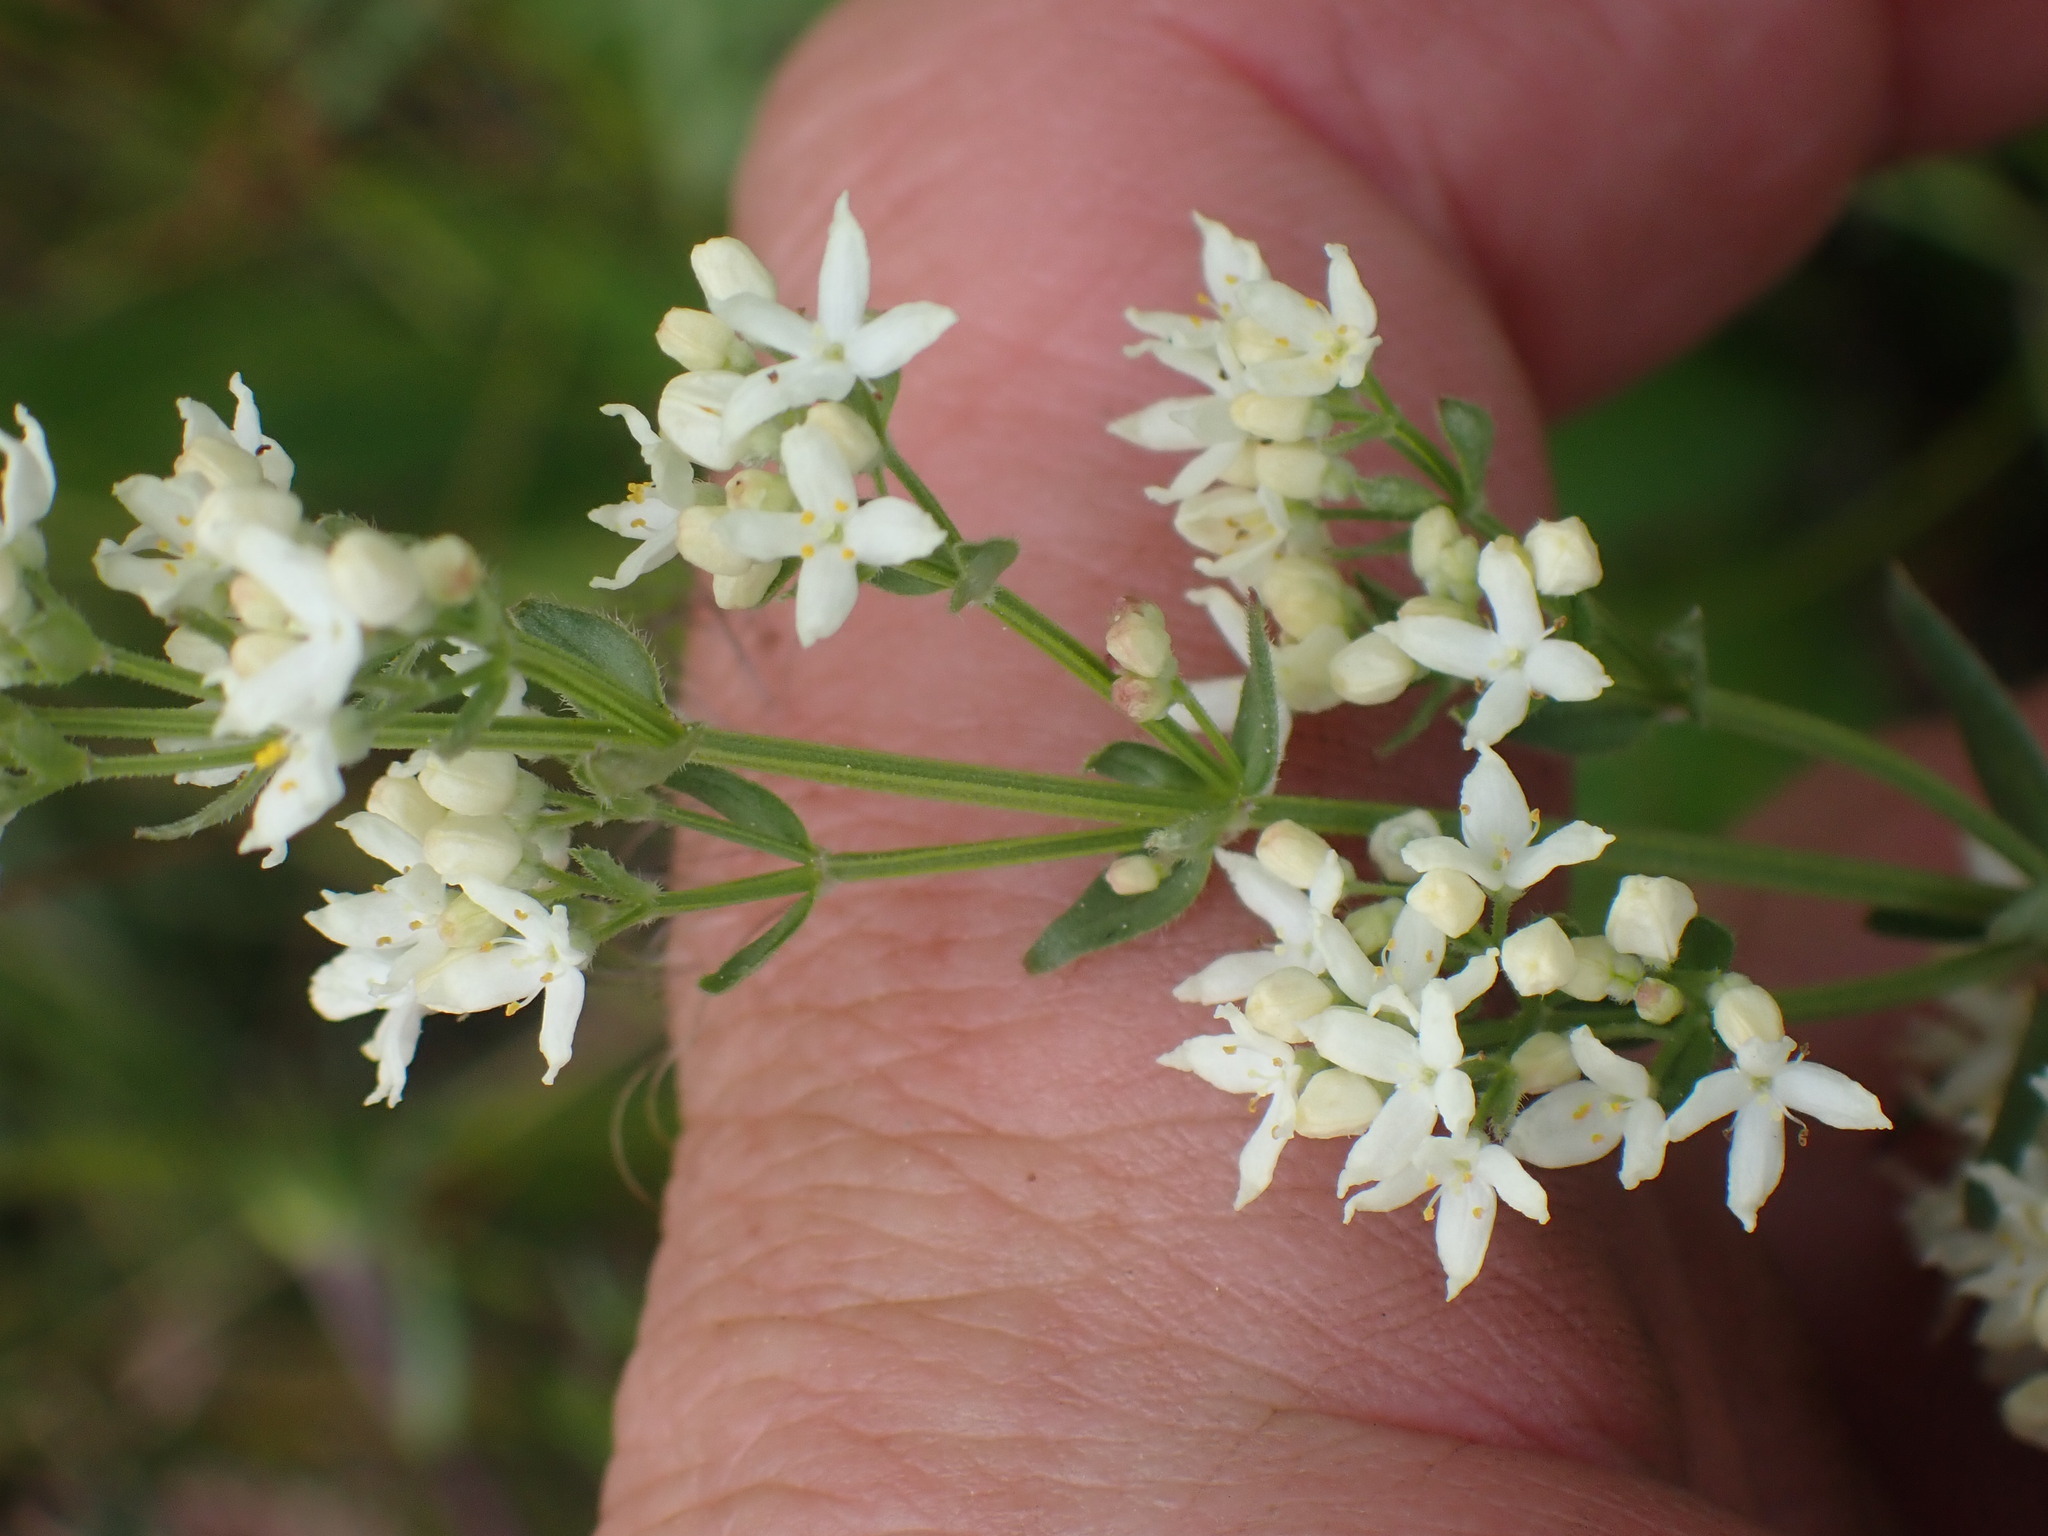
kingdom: Plantae
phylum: Tracheophyta
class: Magnoliopsida
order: Gentianales
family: Rubiaceae
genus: Galium
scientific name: Galium boreale
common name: Northern bedstraw
